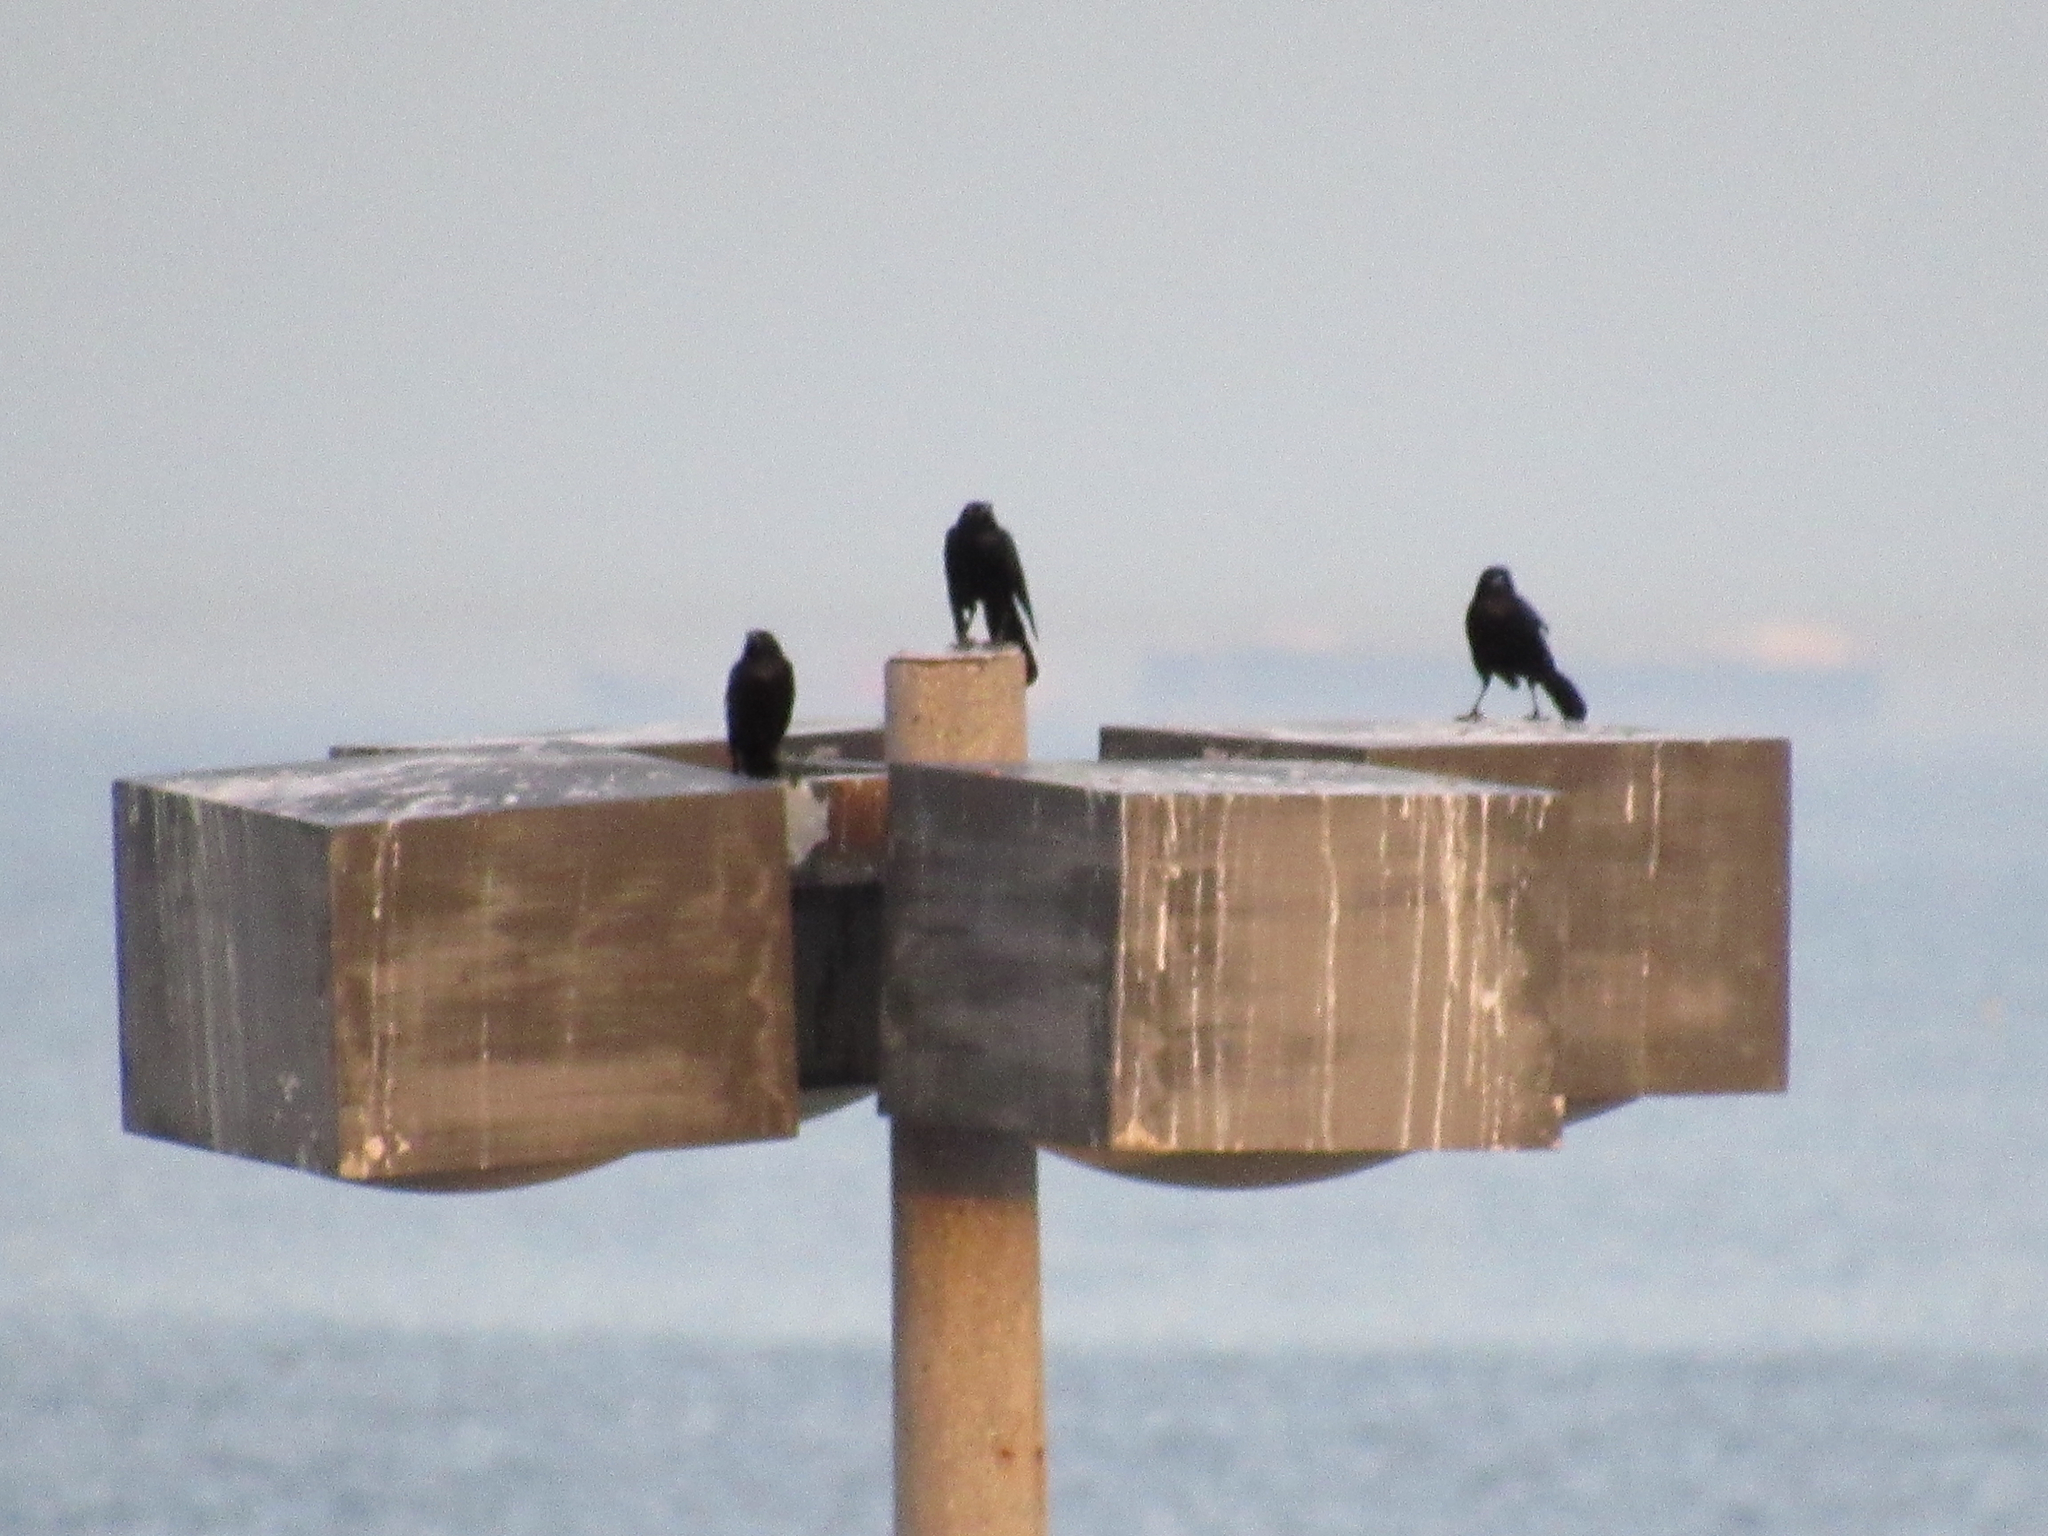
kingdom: Animalia
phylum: Chordata
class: Aves
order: Passeriformes
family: Icteridae
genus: Quiscalus
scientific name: Quiscalus mexicanus
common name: Great-tailed grackle
